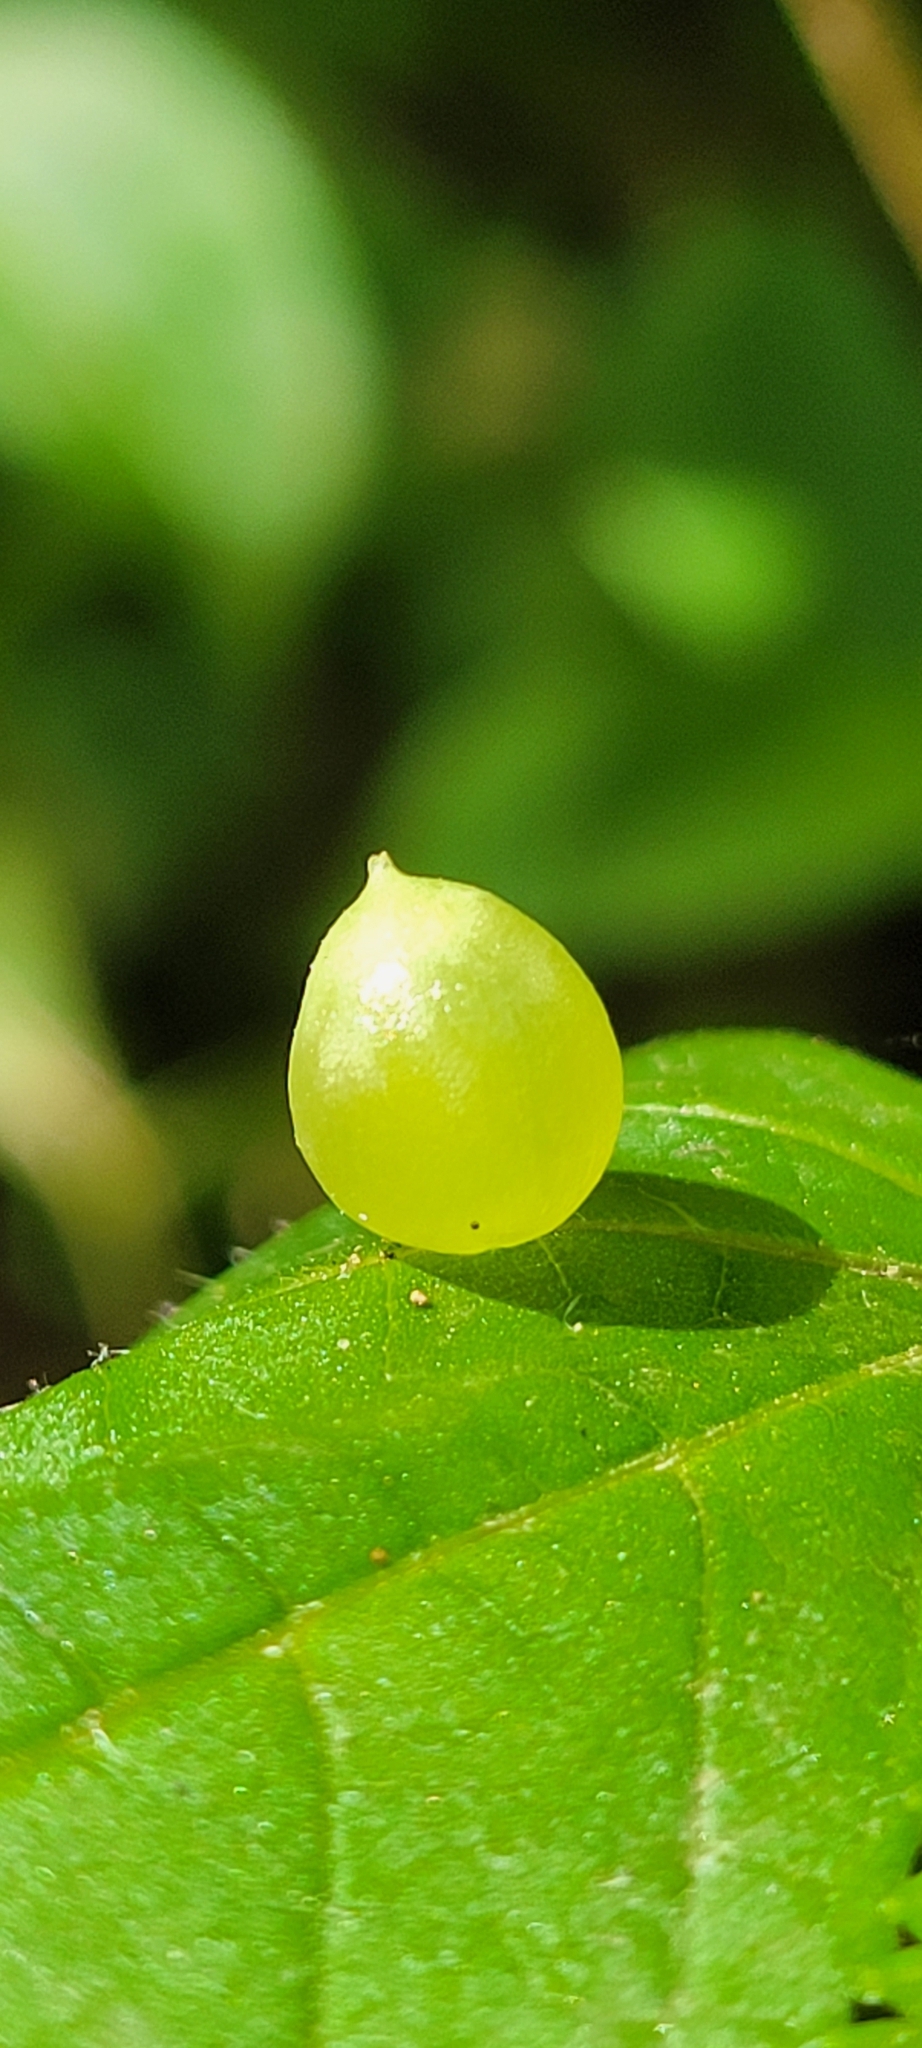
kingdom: Animalia
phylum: Arthropoda
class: Insecta
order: Diptera
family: Cecidomyiidae
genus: Dasineura
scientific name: Dasineura investita
